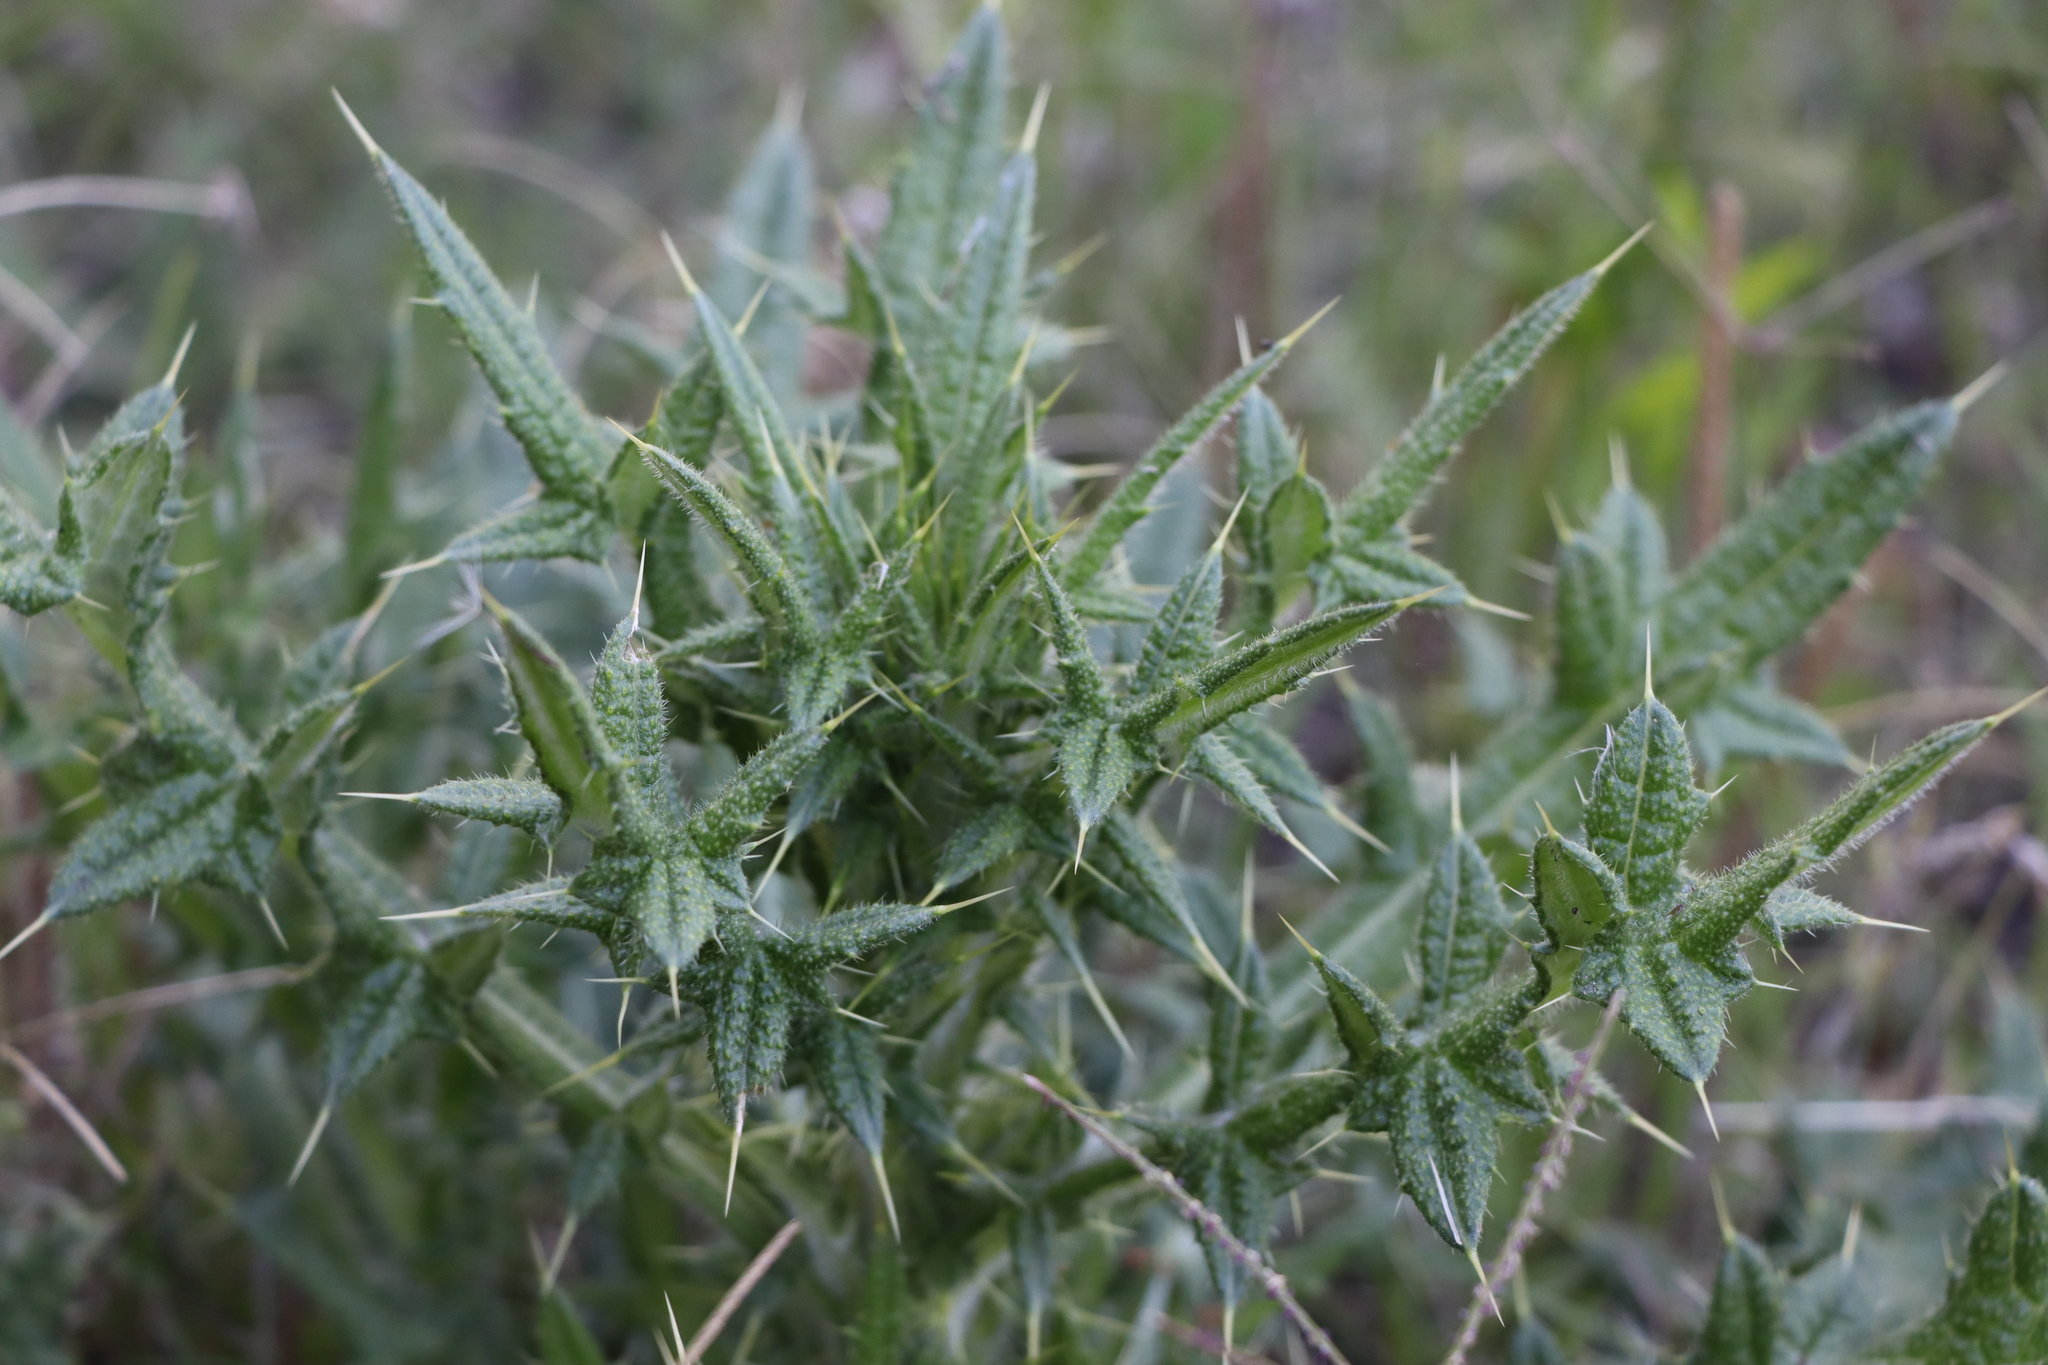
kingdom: Plantae
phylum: Tracheophyta
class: Magnoliopsida
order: Asterales
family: Asteraceae
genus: Cirsium
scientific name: Cirsium vulgare
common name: Bull thistle
